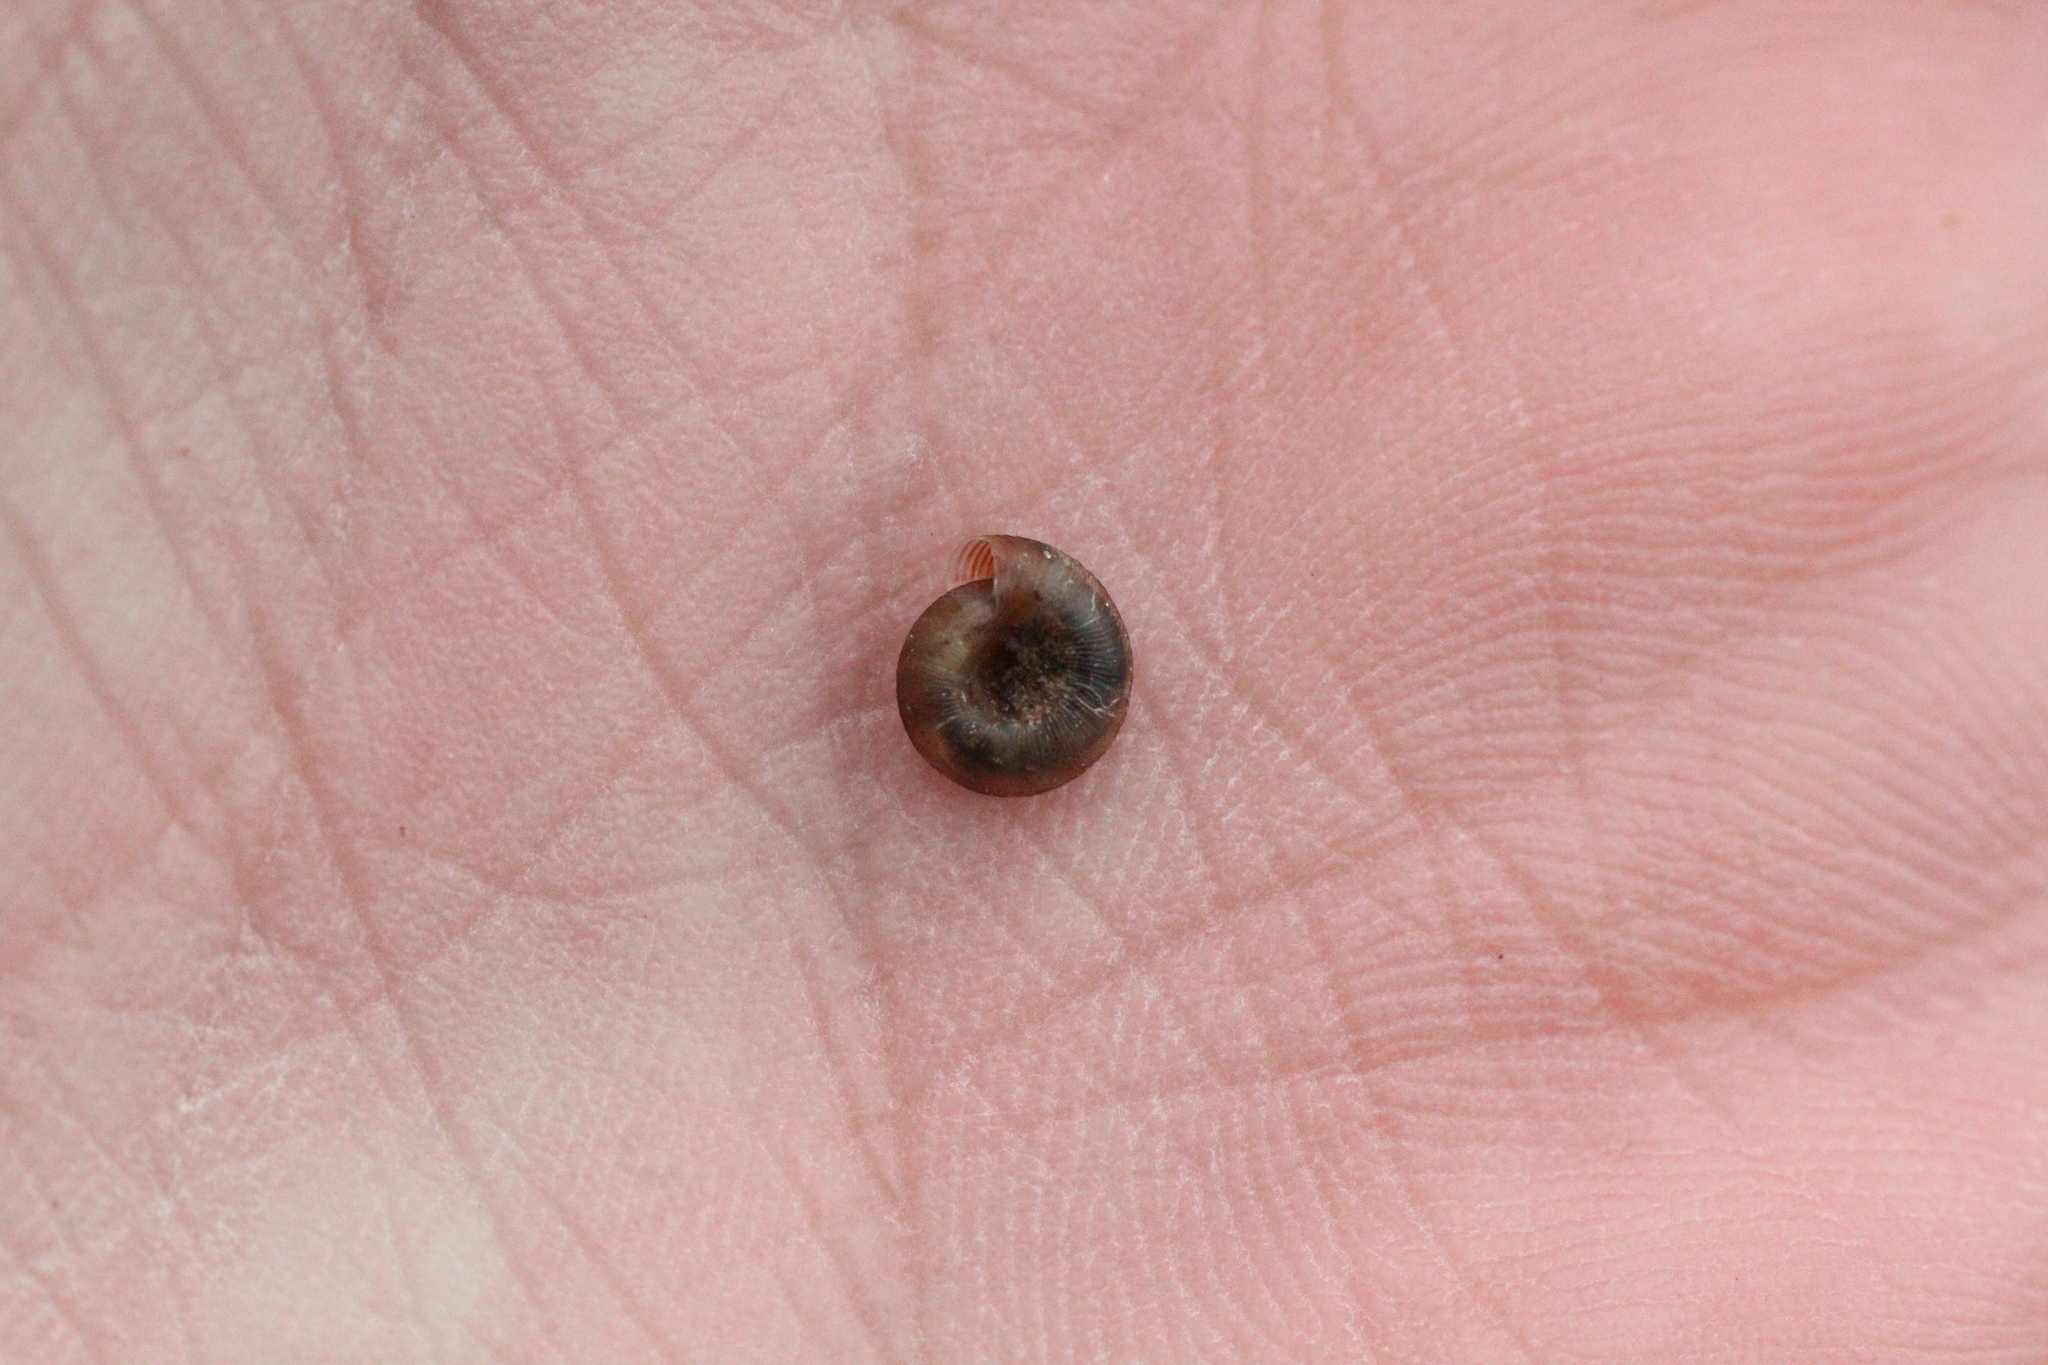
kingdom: Animalia
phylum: Mollusca
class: Gastropoda
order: Stylommatophora
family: Discidae
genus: Discus
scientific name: Discus rotundatus
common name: Rounded snail
